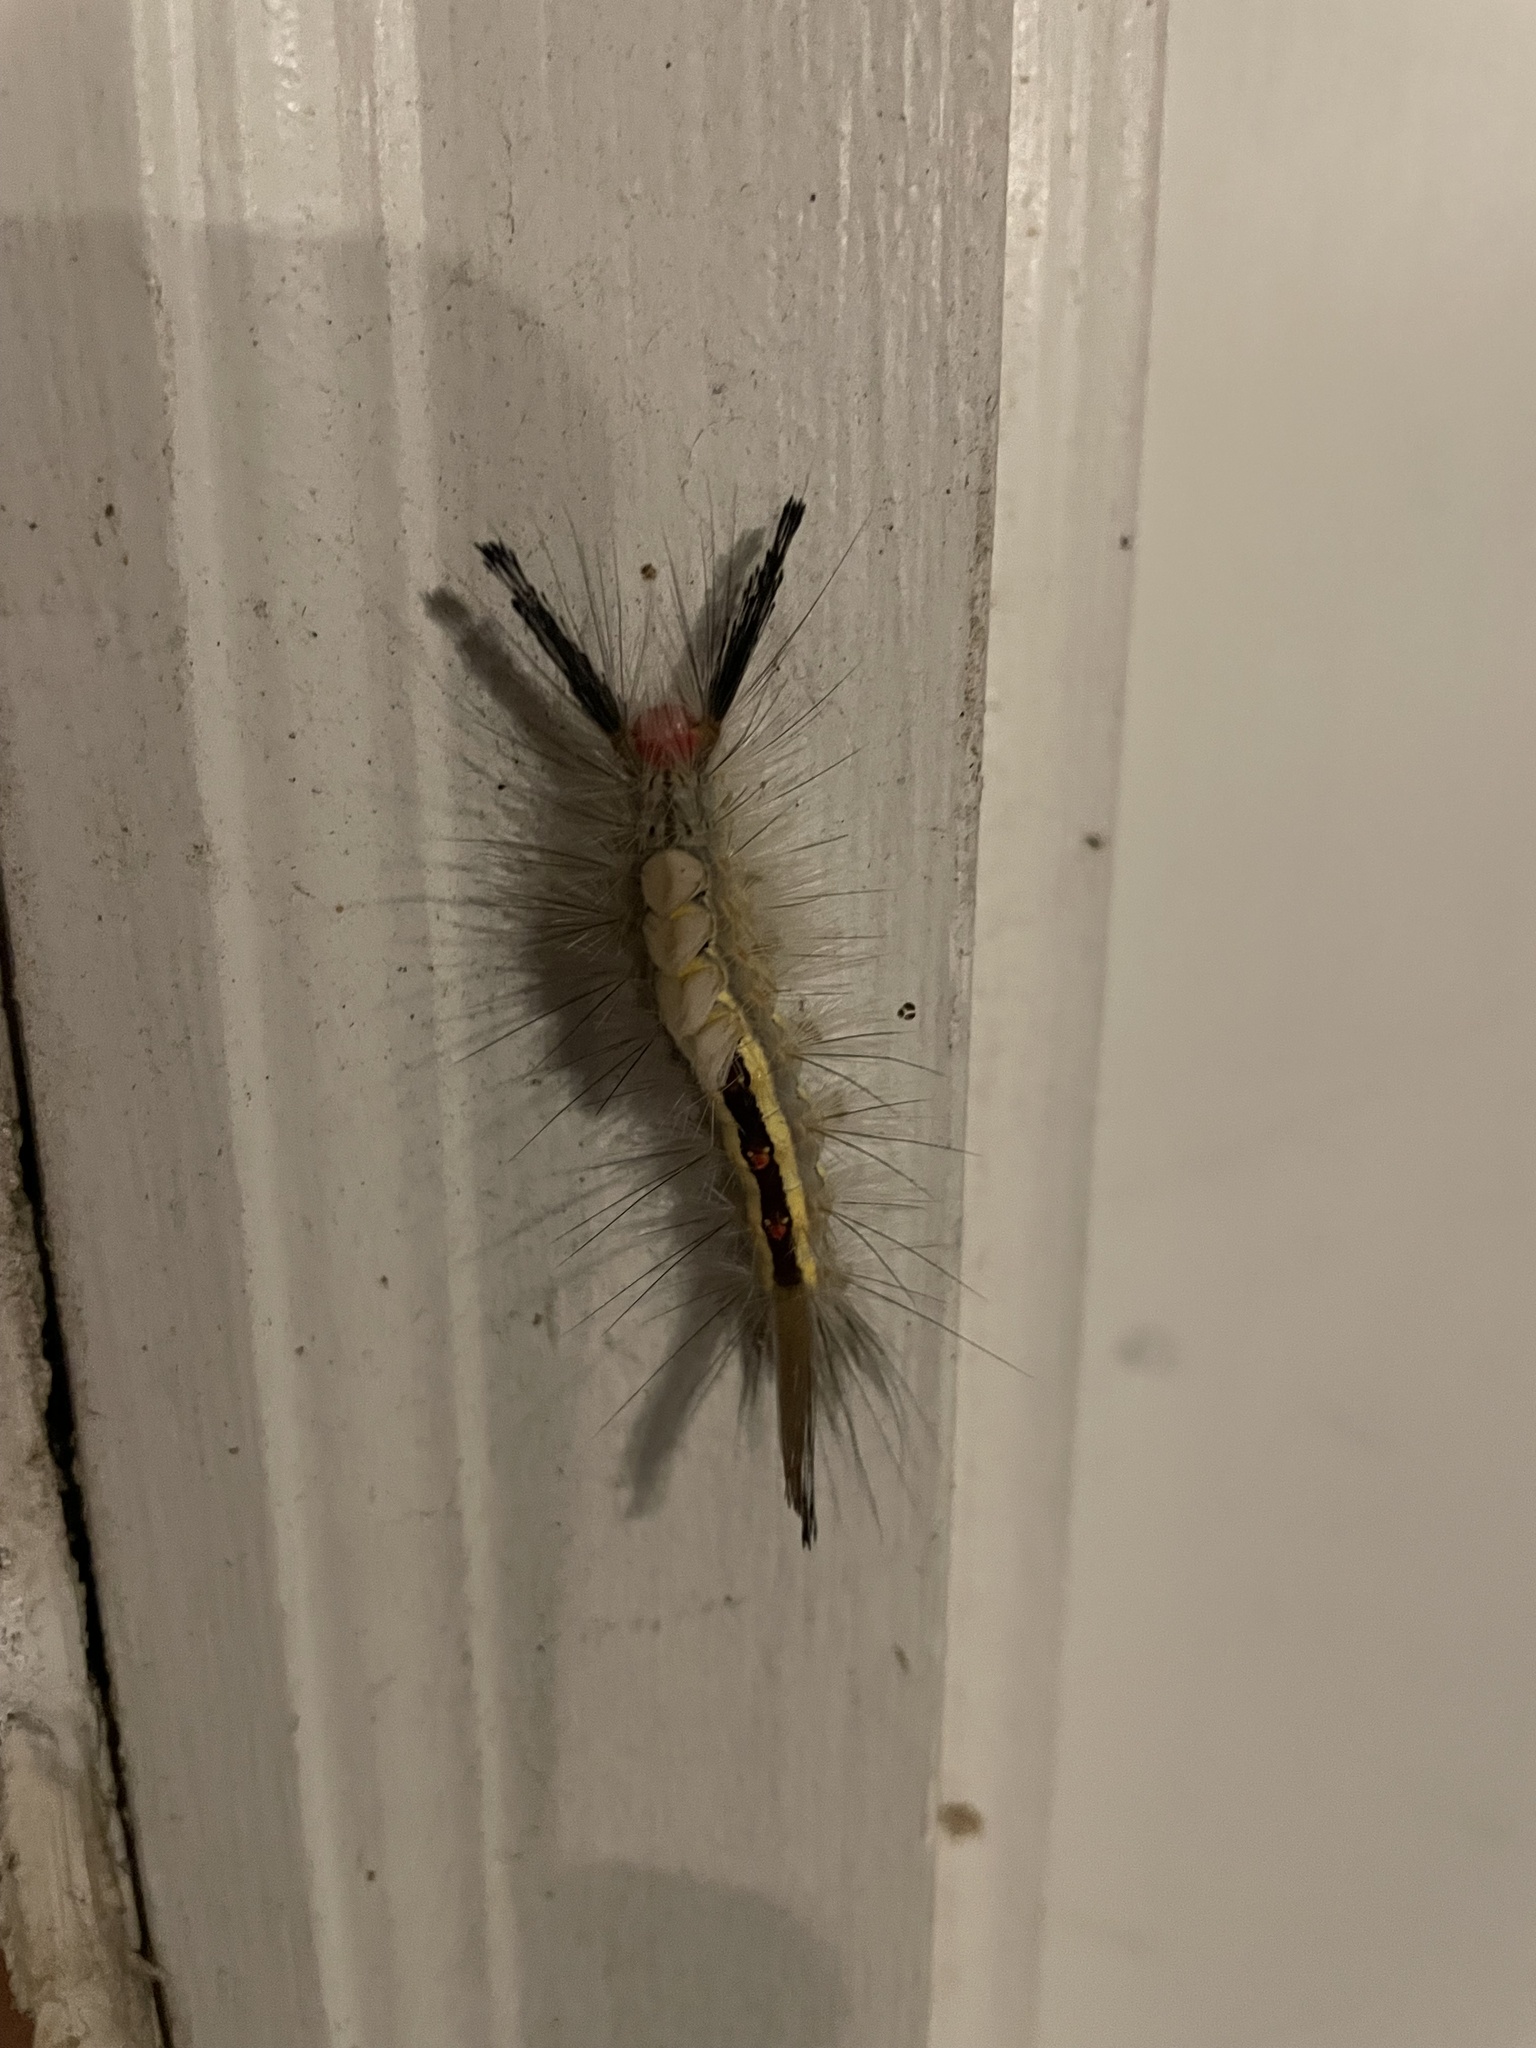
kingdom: Animalia
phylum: Arthropoda
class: Insecta
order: Lepidoptera
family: Erebidae
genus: Orgyia
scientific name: Orgyia leucostigma
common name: White-marked tussock moth
